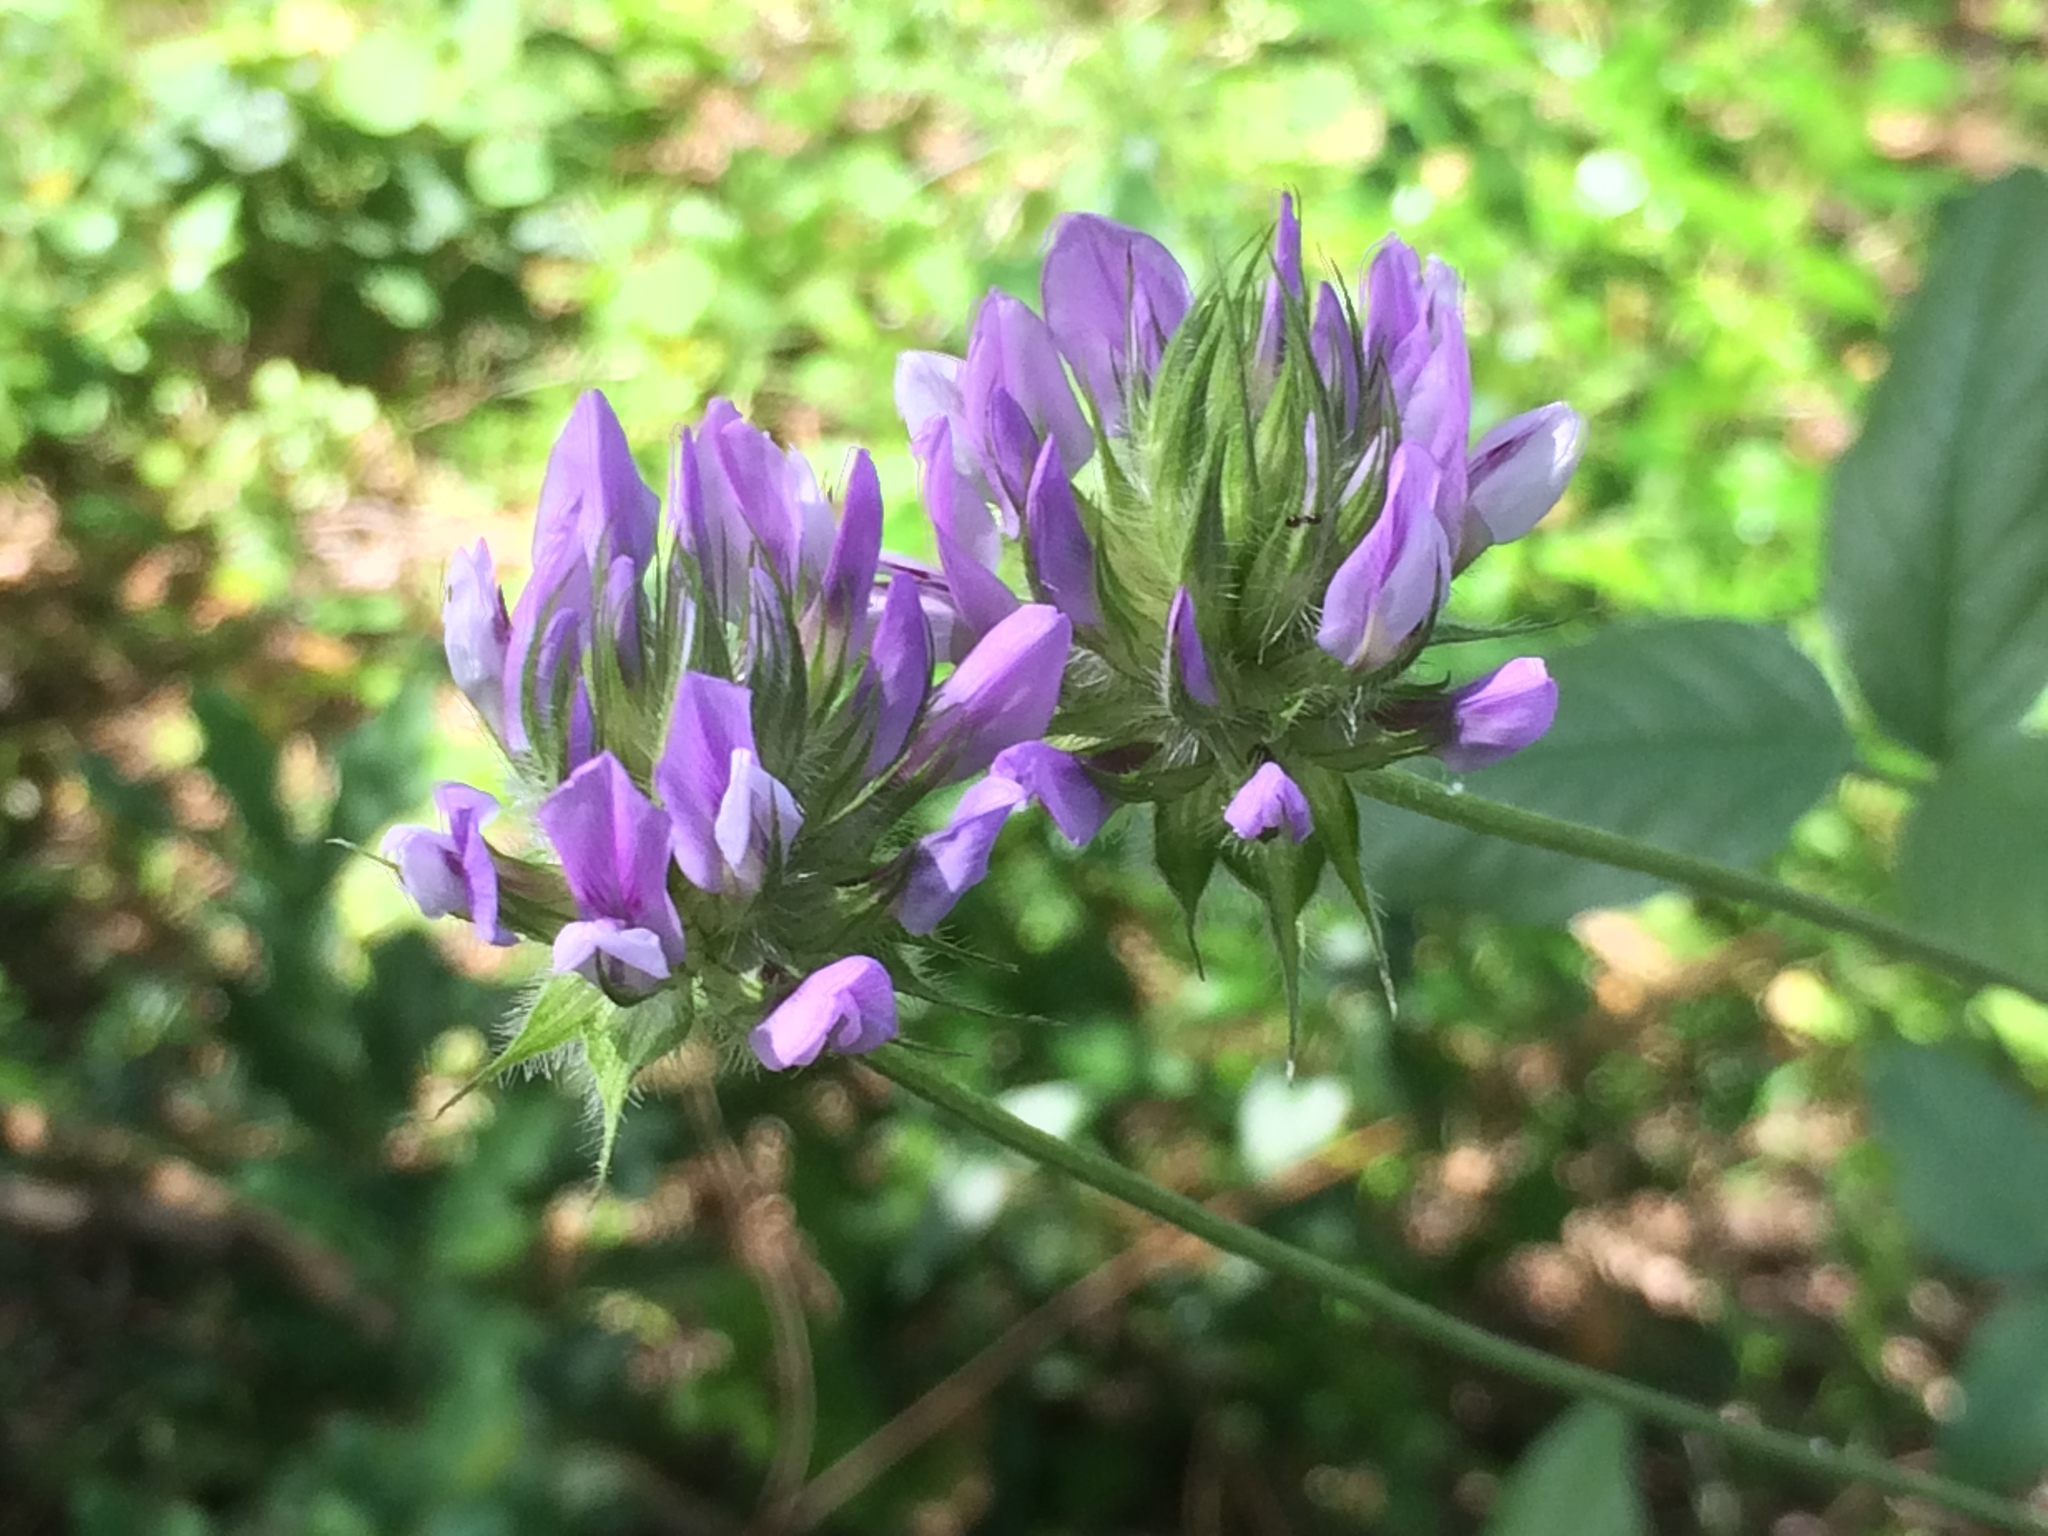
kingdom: Plantae
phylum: Tracheophyta
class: Magnoliopsida
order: Fabales
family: Fabaceae
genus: Bituminaria
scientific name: Bituminaria bituminosa
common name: Arabian pea
